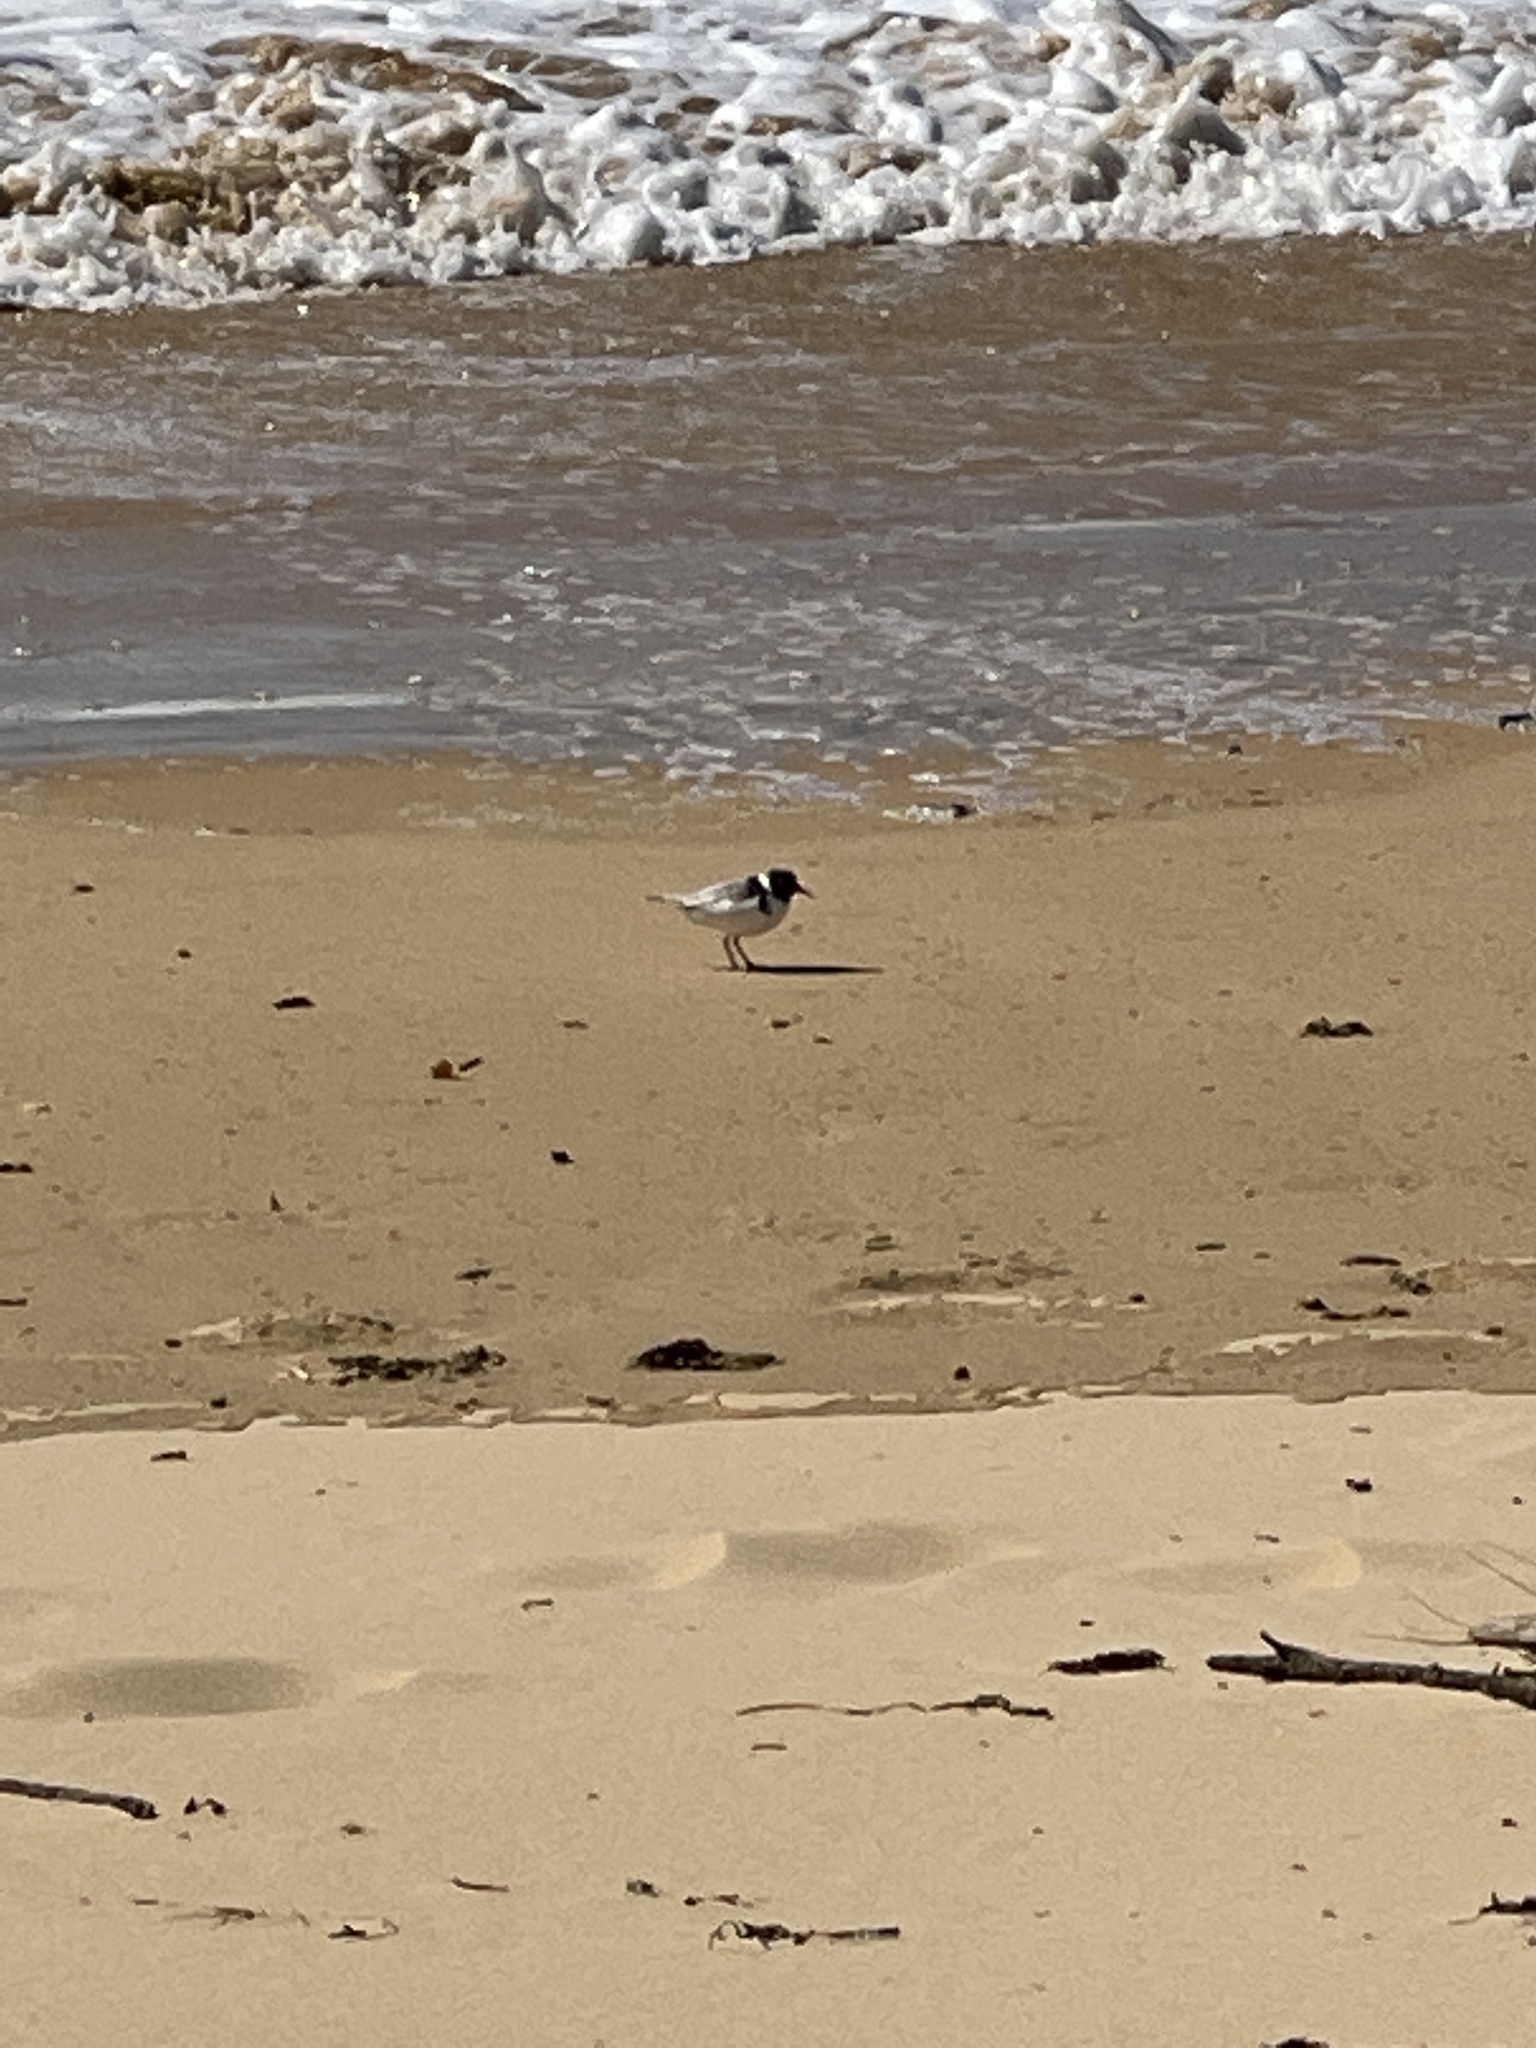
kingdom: Animalia
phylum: Chordata
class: Aves
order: Charadriiformes
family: Charadriidae
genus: Thinornis
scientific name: Thinornis cucullatus
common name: Hooded dotterel
